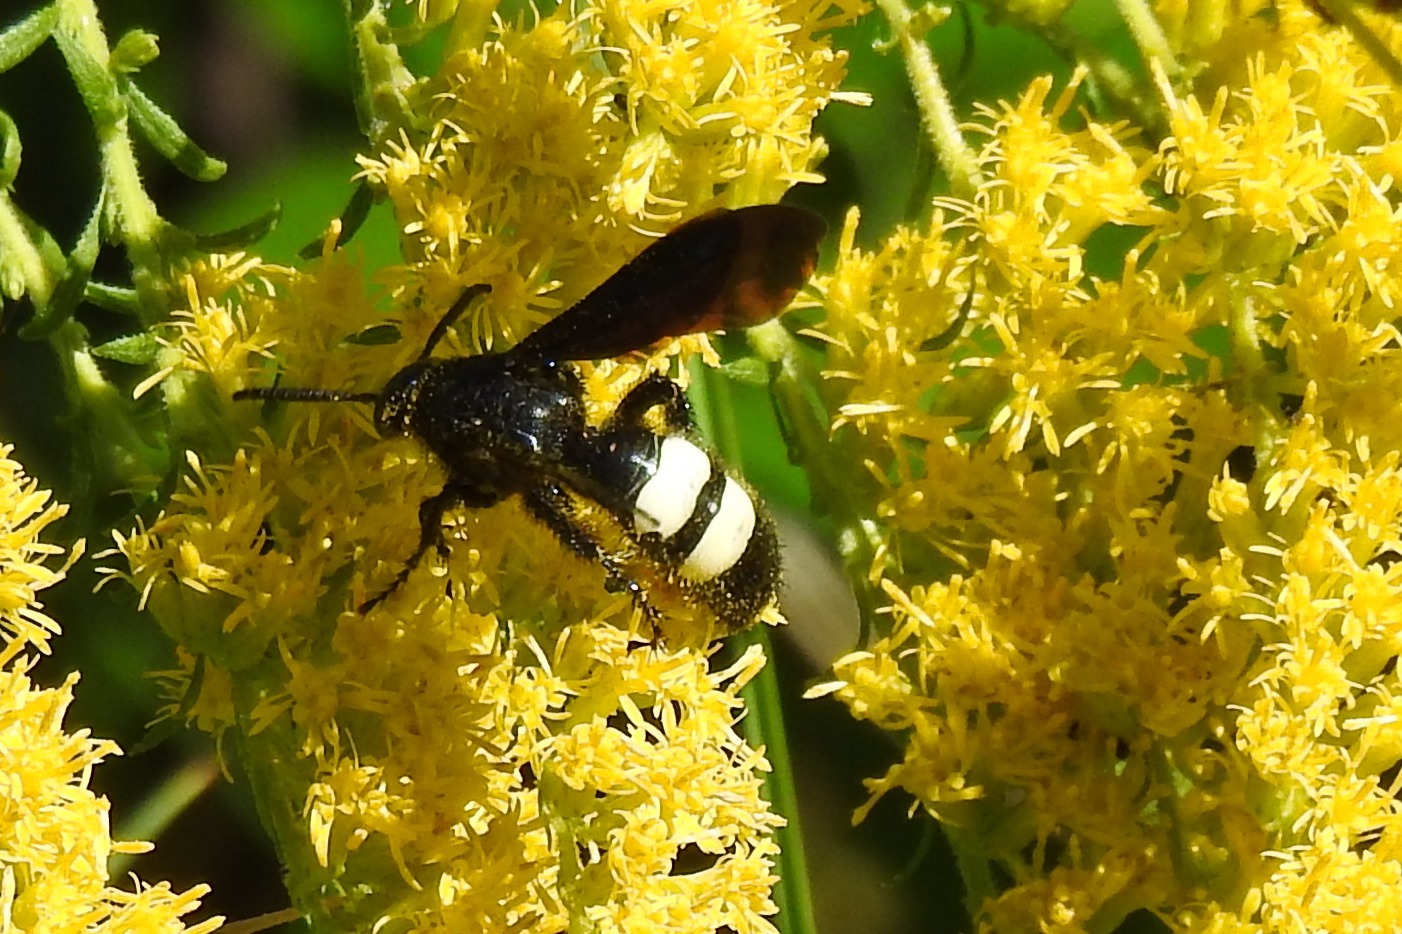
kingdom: Animalia
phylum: Arthropoda
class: Insecta
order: Hymenoptera
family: Scoliidae
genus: Scolia
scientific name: Scolia bicincta
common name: Double-banded scoliid wasp
